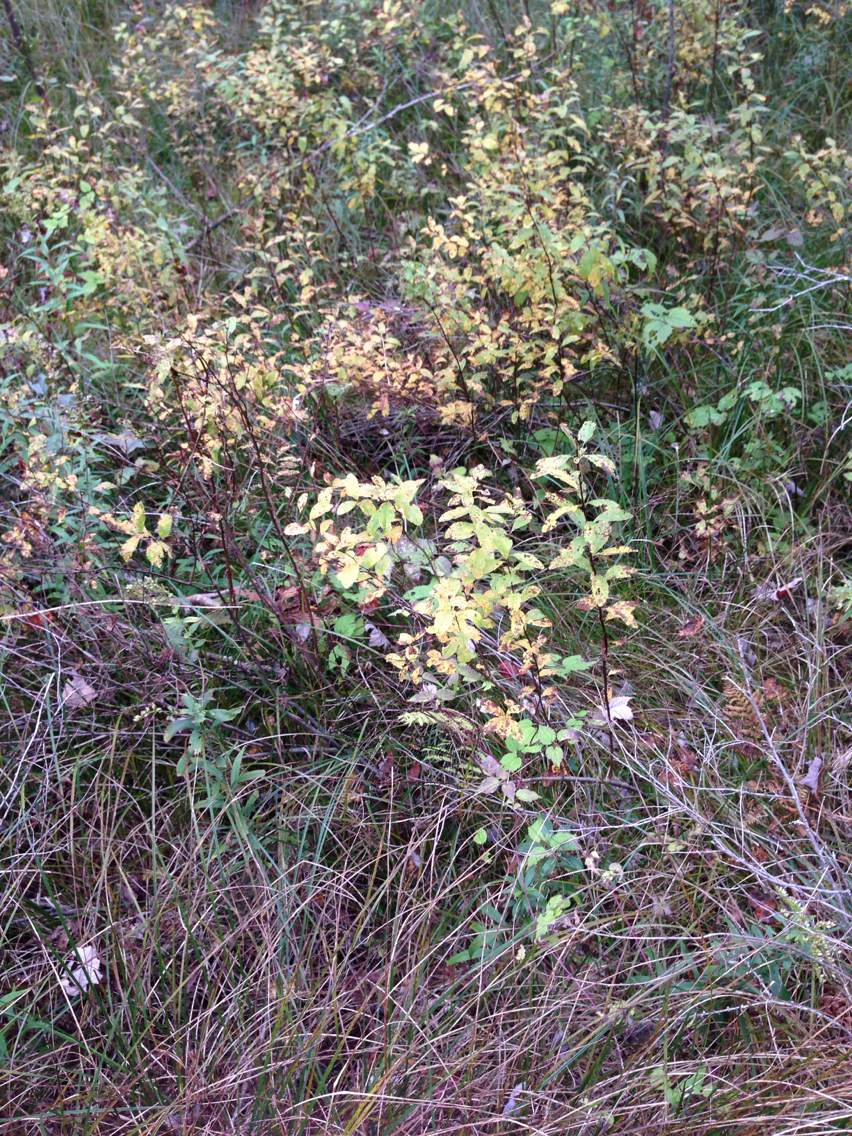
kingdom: Plantae
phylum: Tracheophyta
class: Magnoliopsida
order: Rosales
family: Rosaceae
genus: Spiraea
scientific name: Spiraea alba
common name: Pale bridewort
